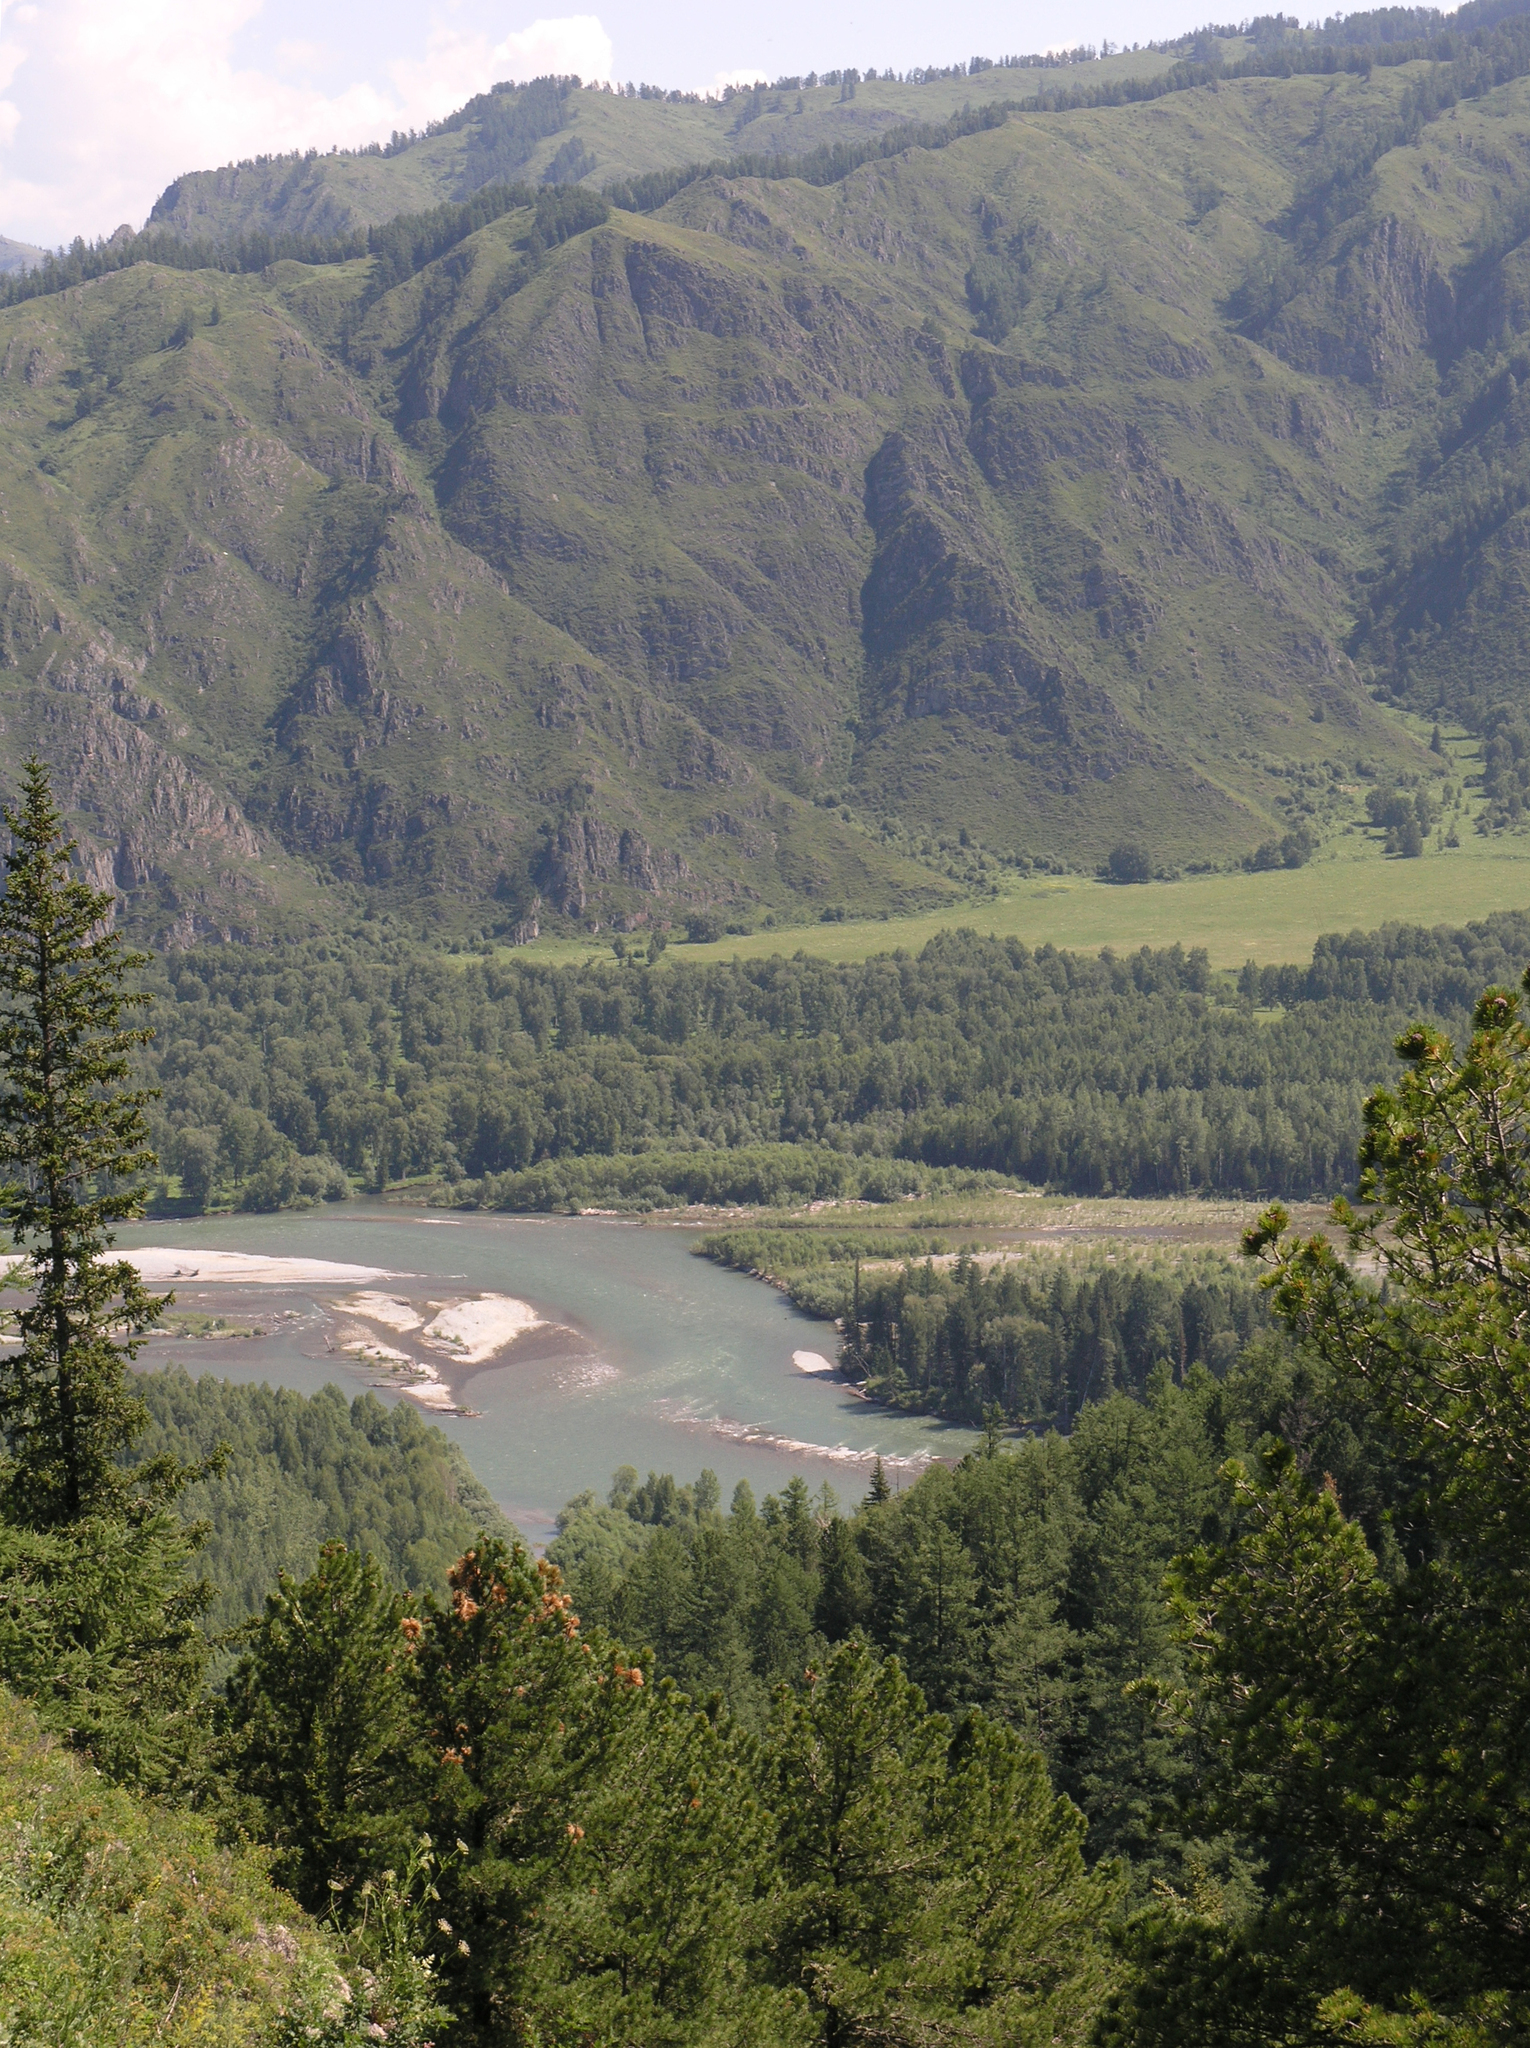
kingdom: Plantae
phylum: Tracheophyta
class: Pinopsida
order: Pinales
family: Pinaceae
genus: Picea
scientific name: Picea obovata
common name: Siberian spruce
